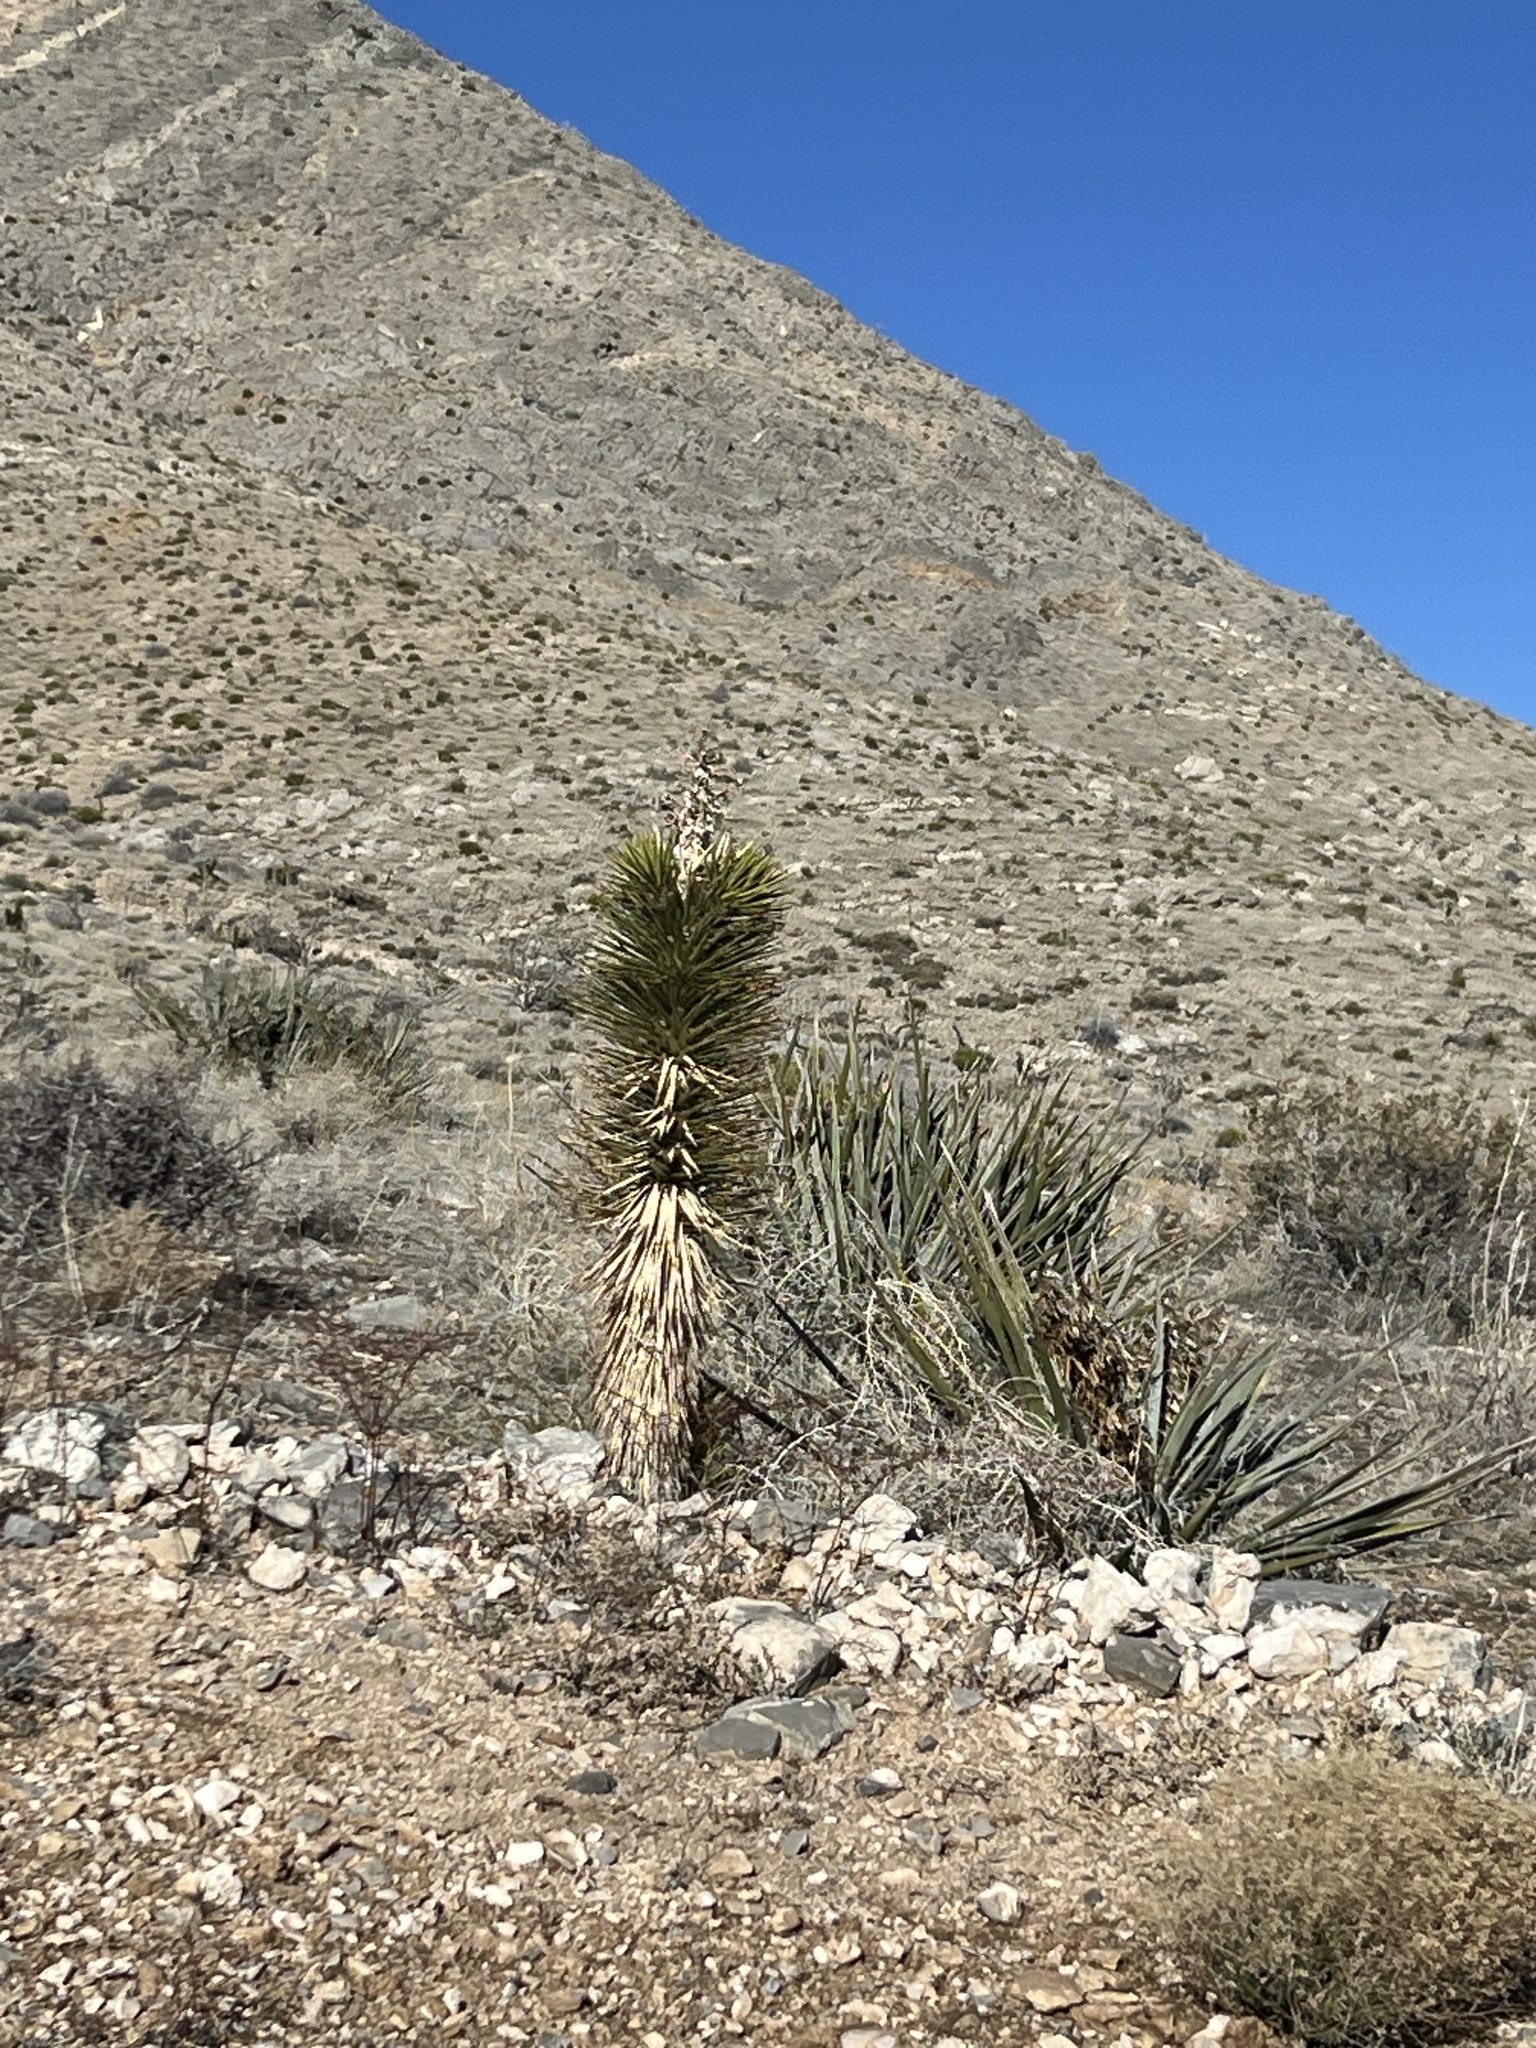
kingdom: Plantae
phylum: Tracheophyta
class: Liliopsida
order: Asparagales
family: Asparagaceae
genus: Yucca
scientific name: Yucca brevifolia
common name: Joshua tree
